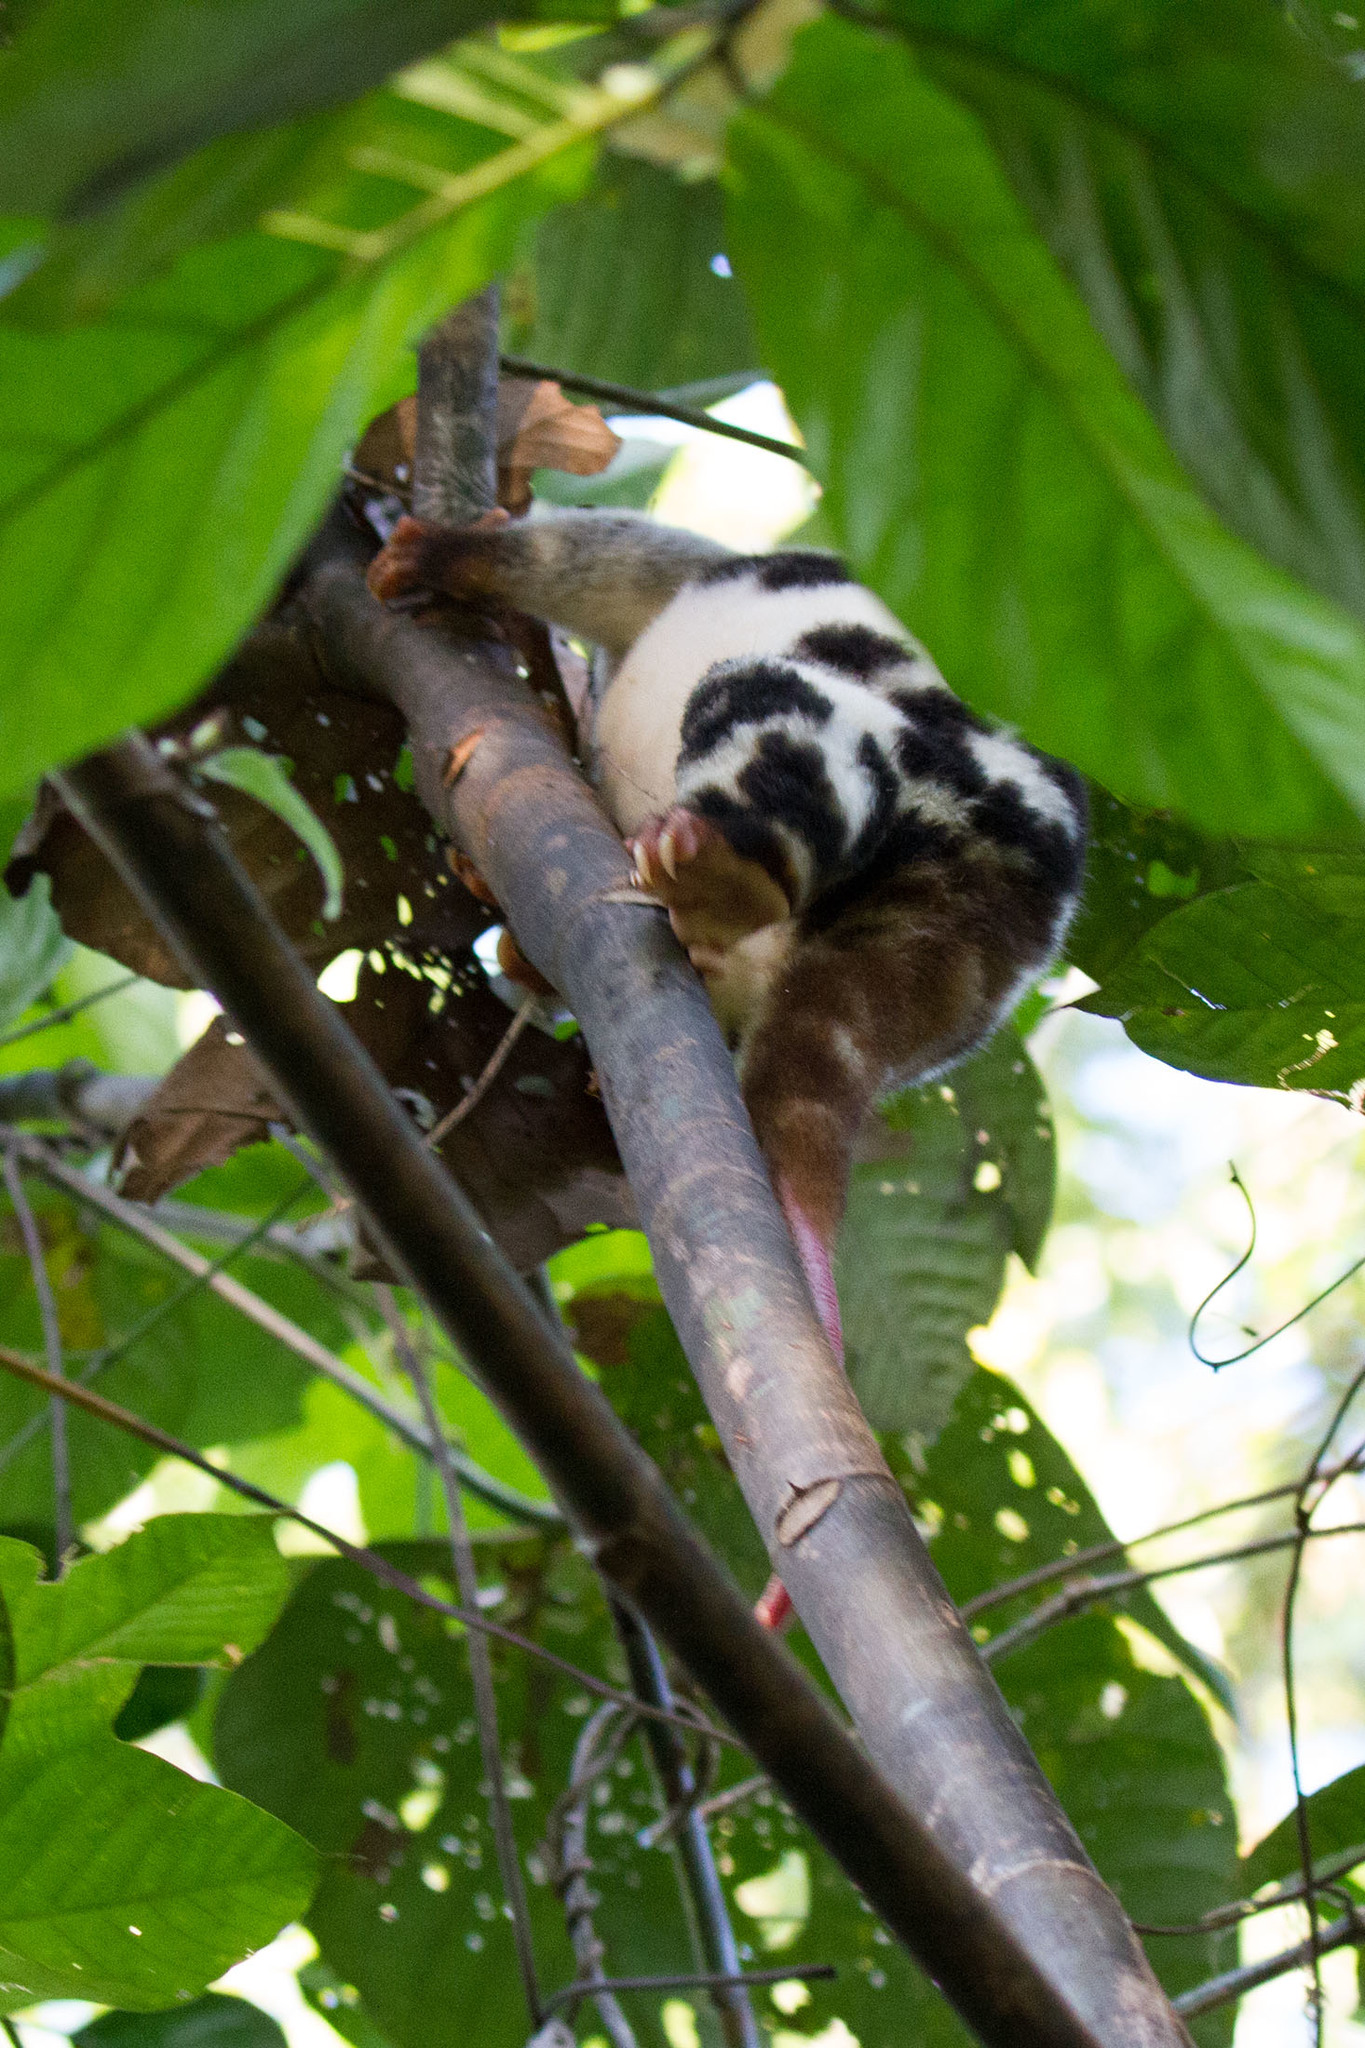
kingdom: Animalia
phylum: Chordata
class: Mammalia
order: Diprotodontia
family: Phalangeridae
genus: Spilocuscus
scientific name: Spilocuscus papuensis
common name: Waigeou cuscus
